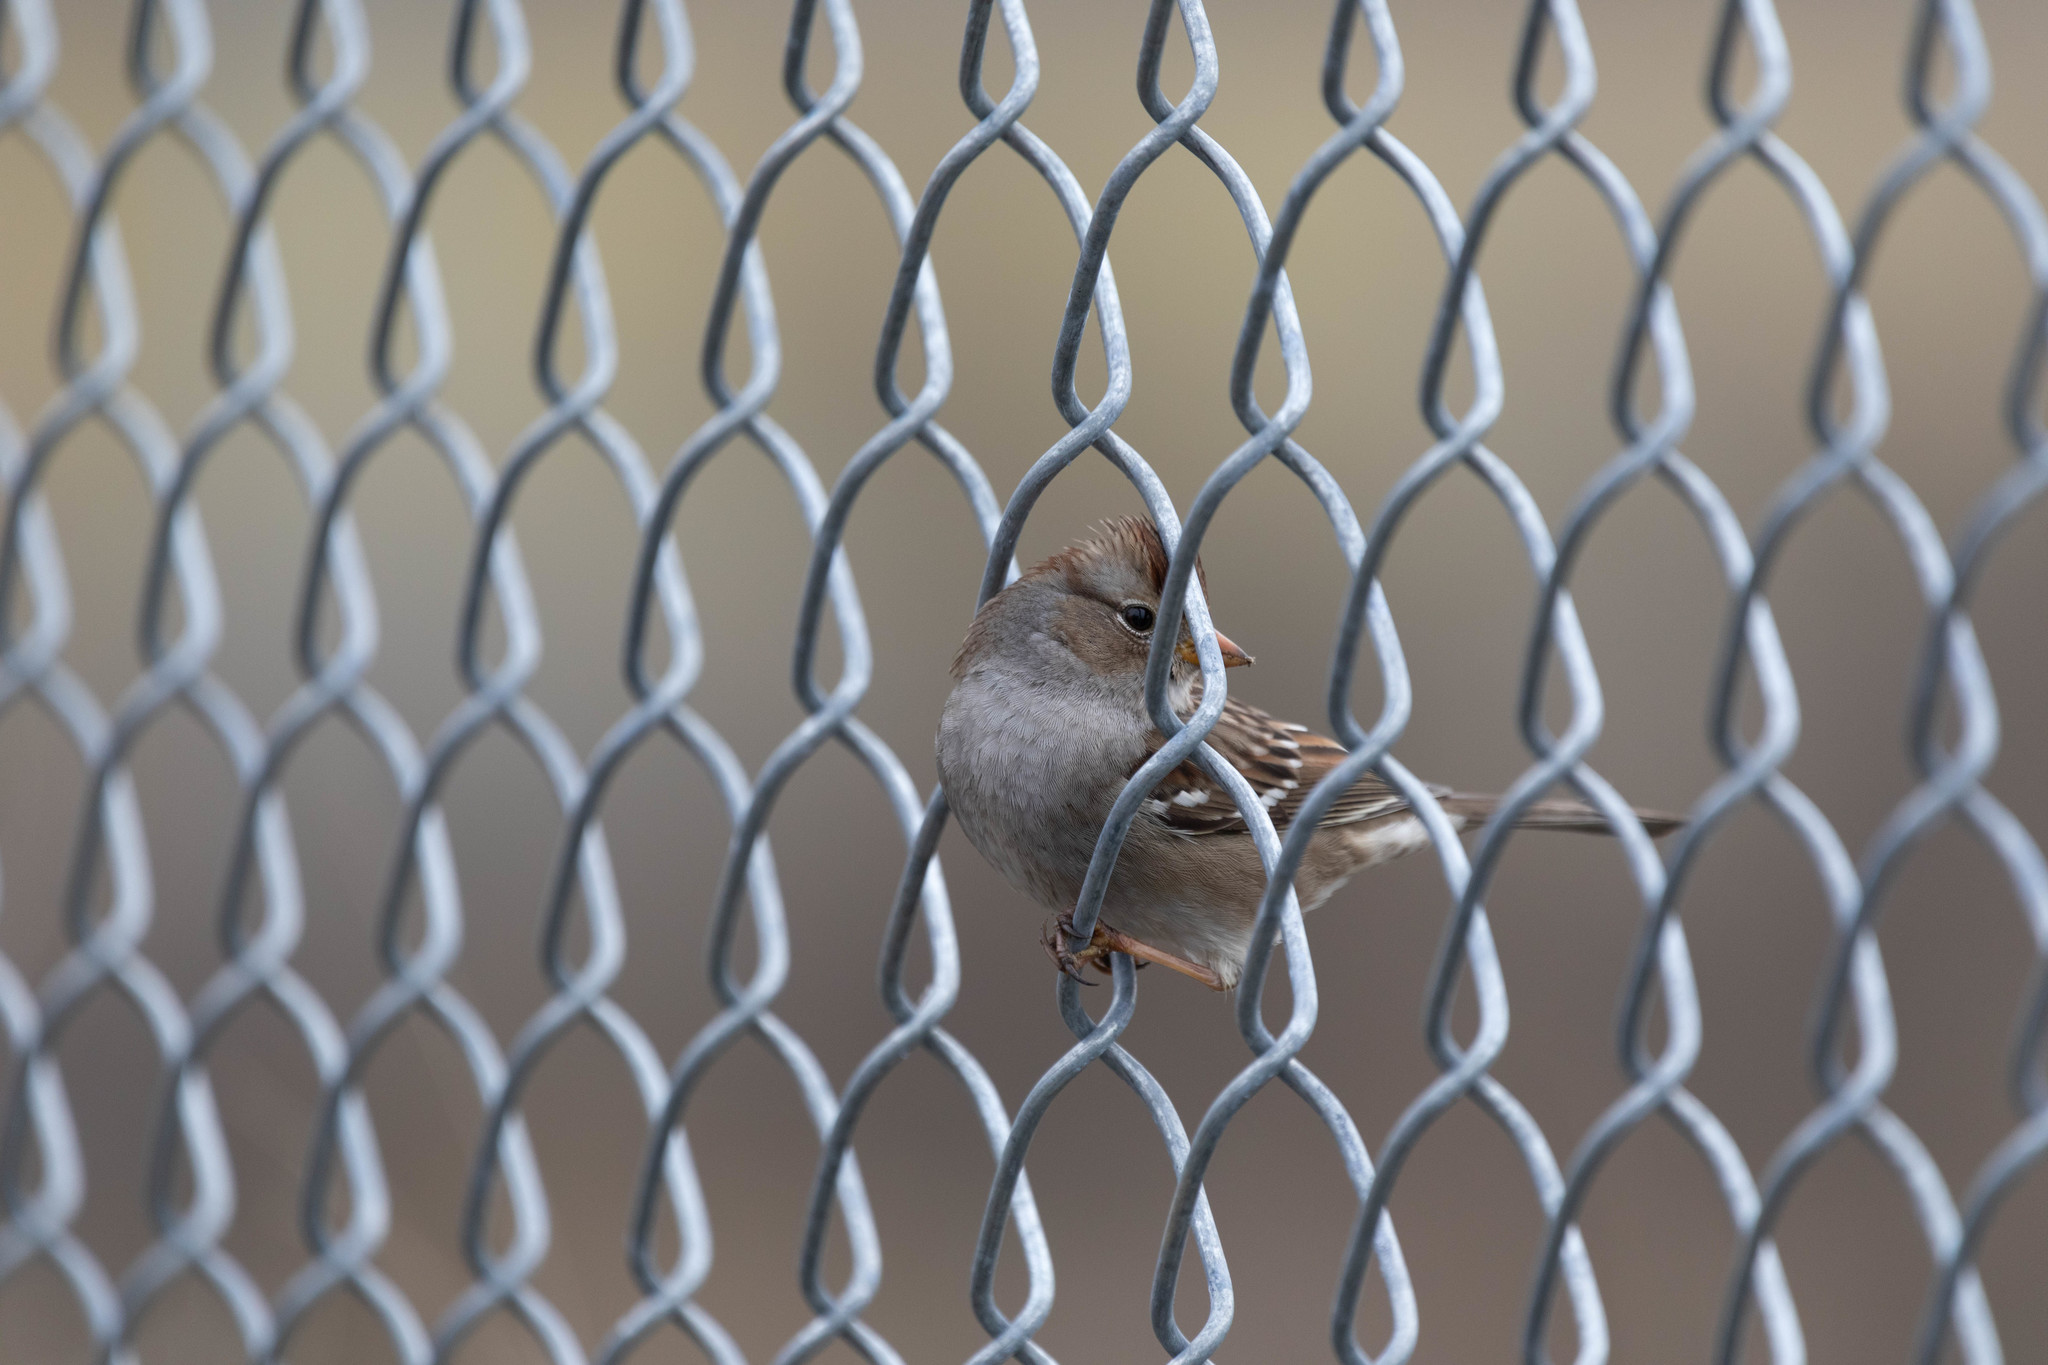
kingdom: Animalia
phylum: Chordata
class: Aves
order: Passeriformes
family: Passerellidae
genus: Zonotrichia
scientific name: Zonotrichia leucophrys
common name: White-crowned sparrow
